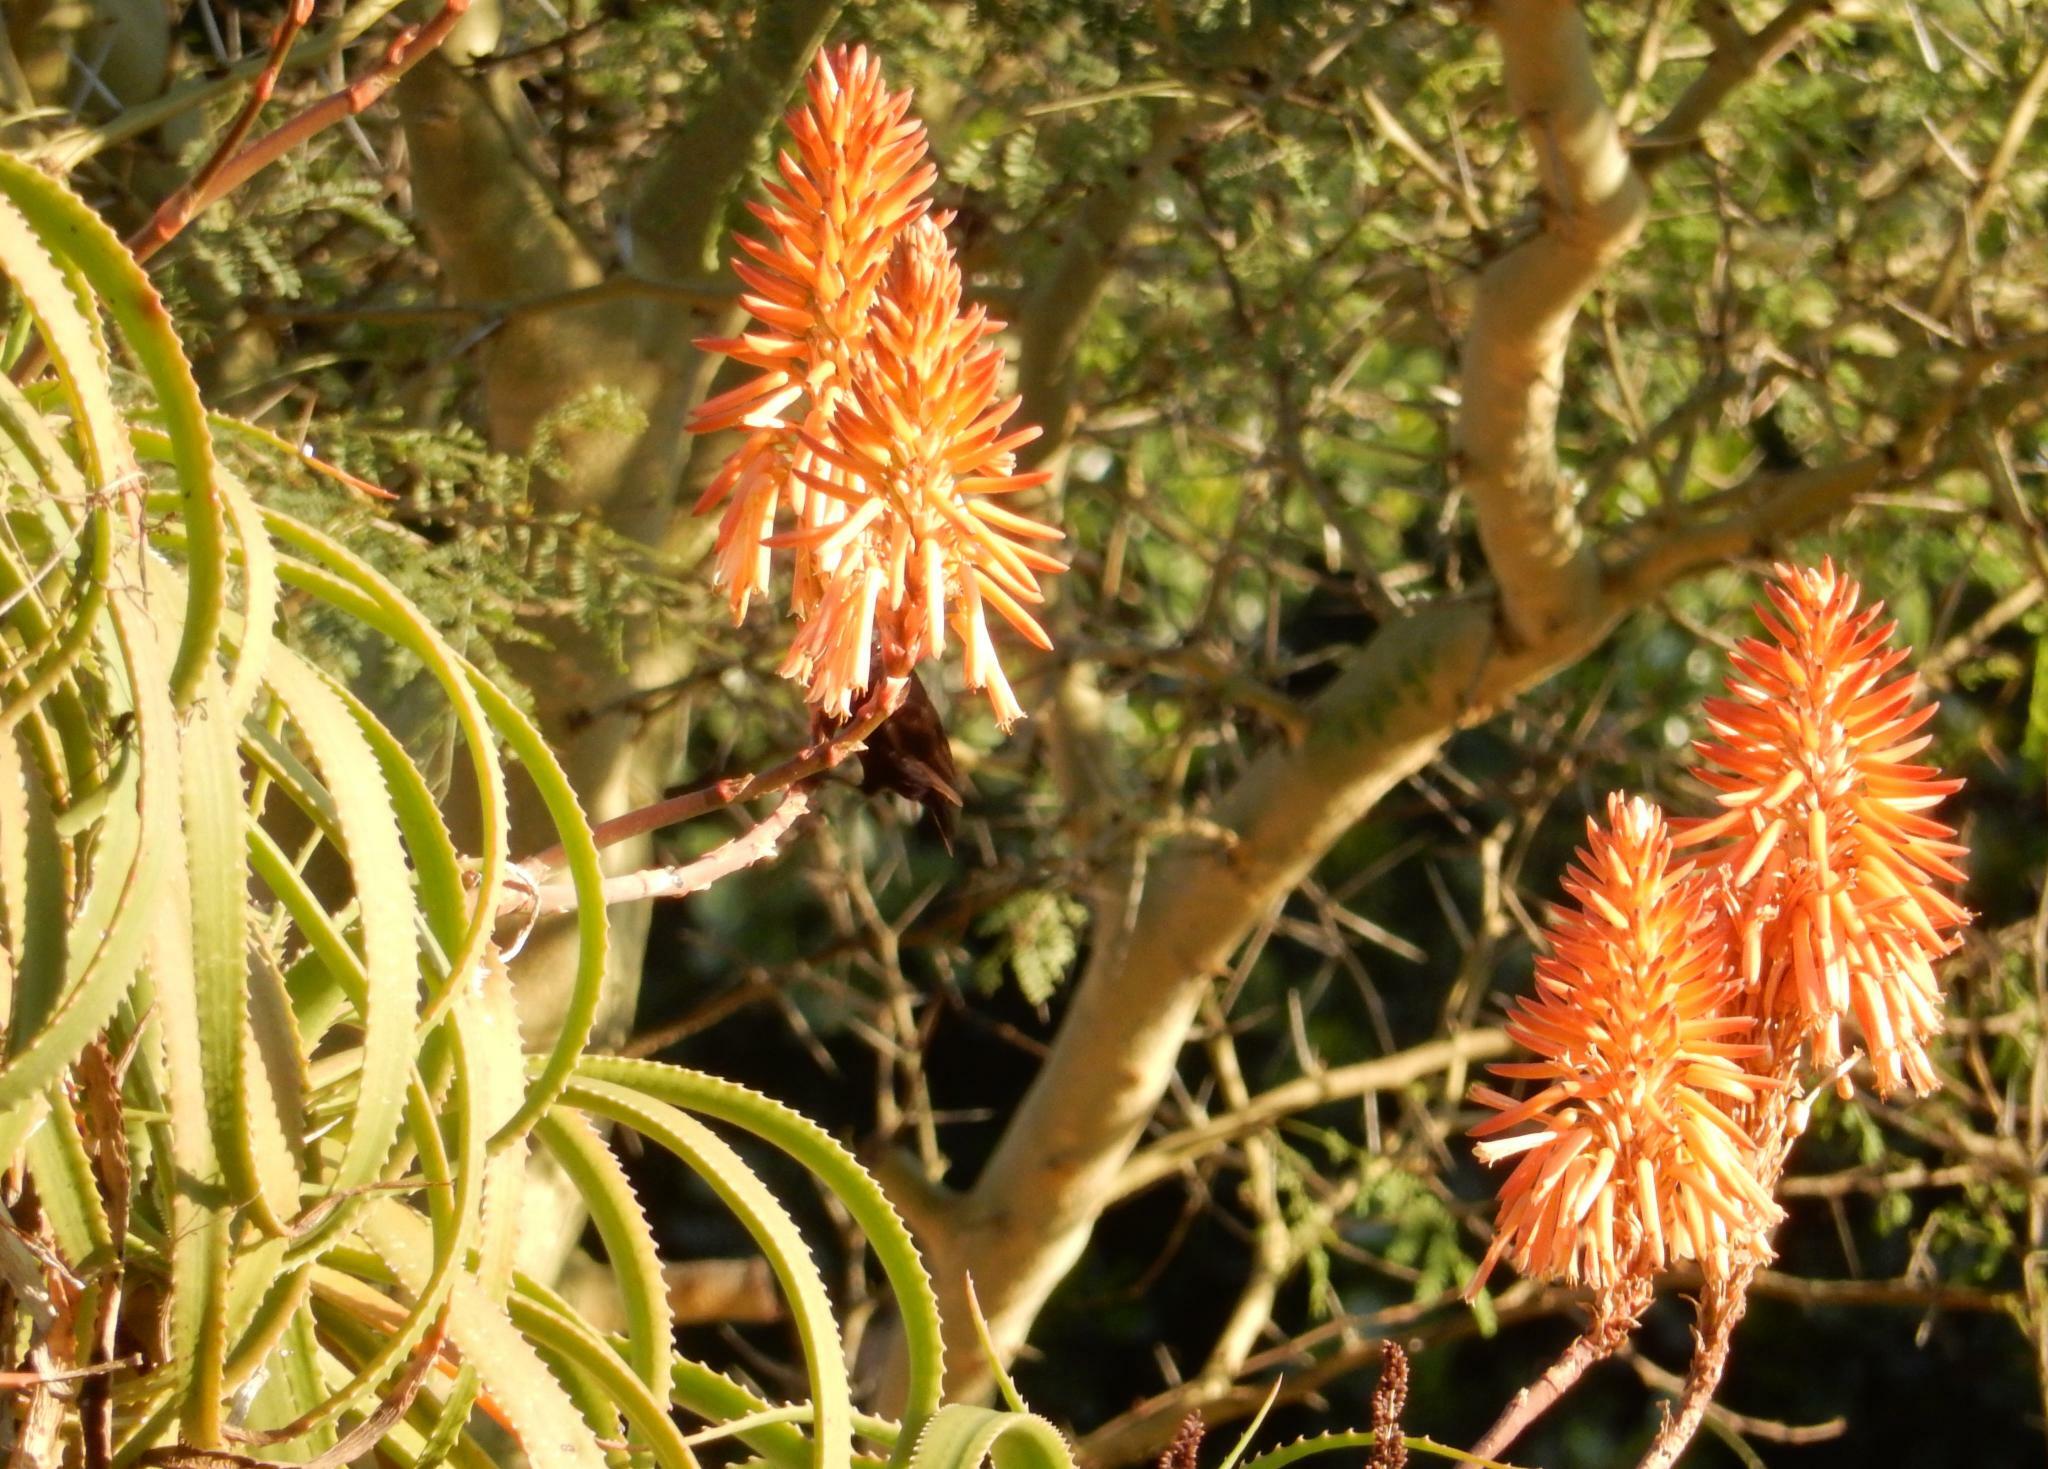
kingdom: Plantae
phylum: Tracheophyta
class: Liliopsida
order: Asparagales
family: Asphodelaceae
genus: Aloe
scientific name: Aloe arborescens
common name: Candelabra aloe
